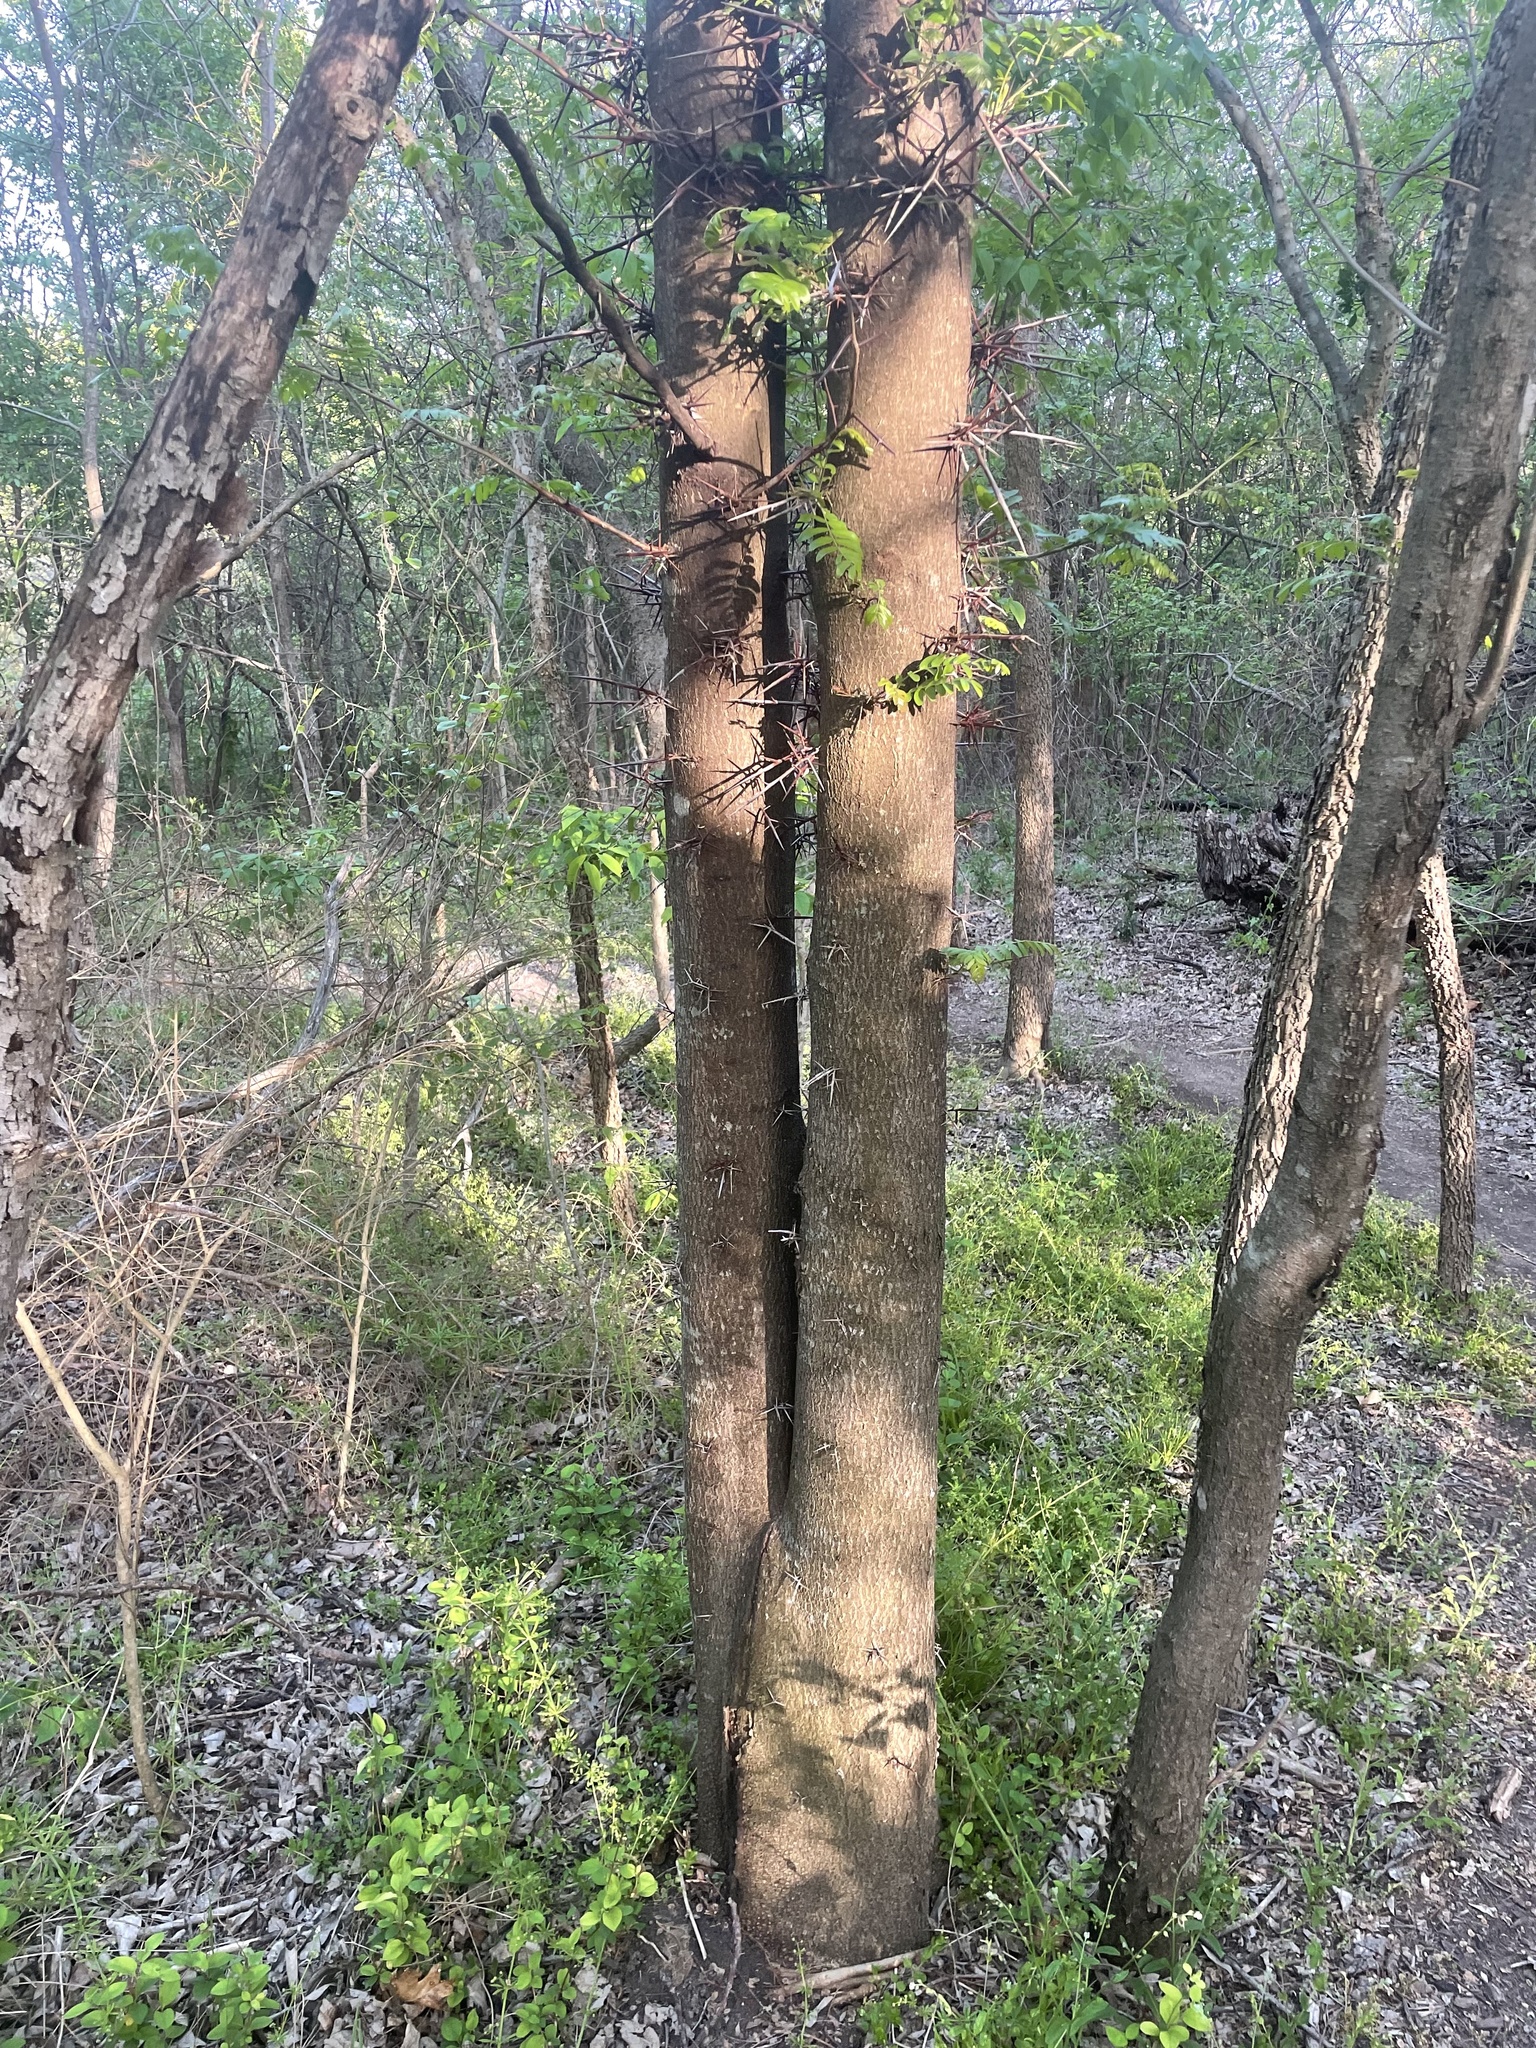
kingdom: Plantae
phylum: Tracheophyta
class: Magnoliopsida
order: Fabales
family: Fabaceae
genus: Gleditsia
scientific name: Gleditsia triacanthos
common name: Common honeylocust
